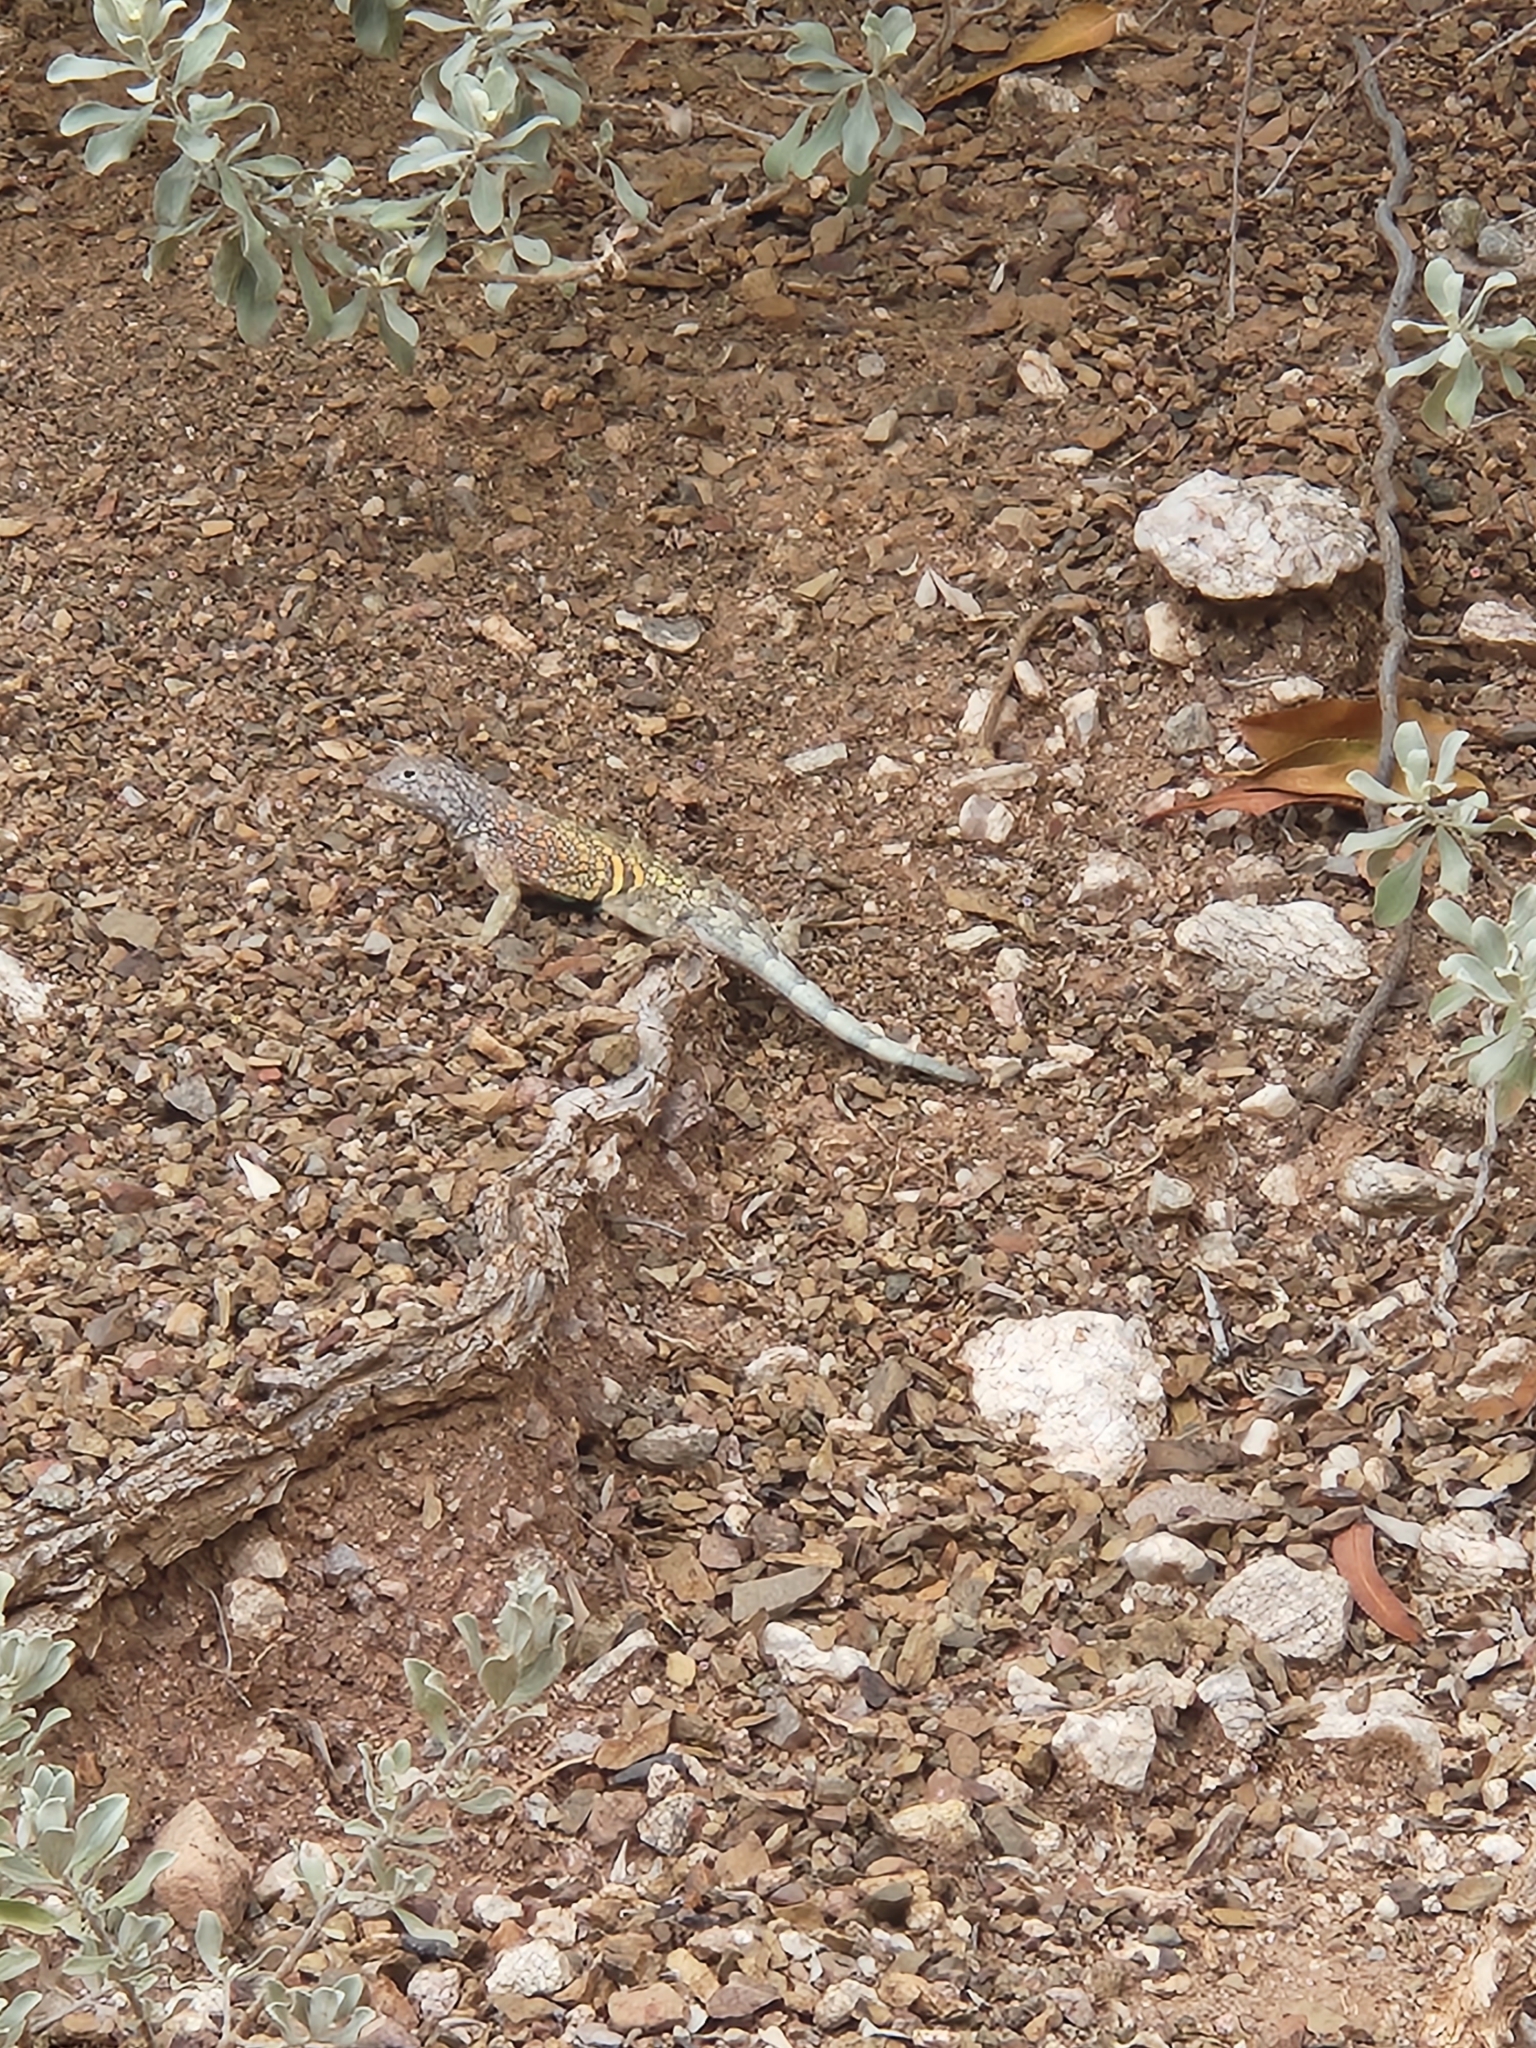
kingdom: Animalia
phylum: Chordata
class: Squamata
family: Phrynosomatidae
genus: Cophosaurus
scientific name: Cophosaurus texanus
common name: Greater earless lizard
